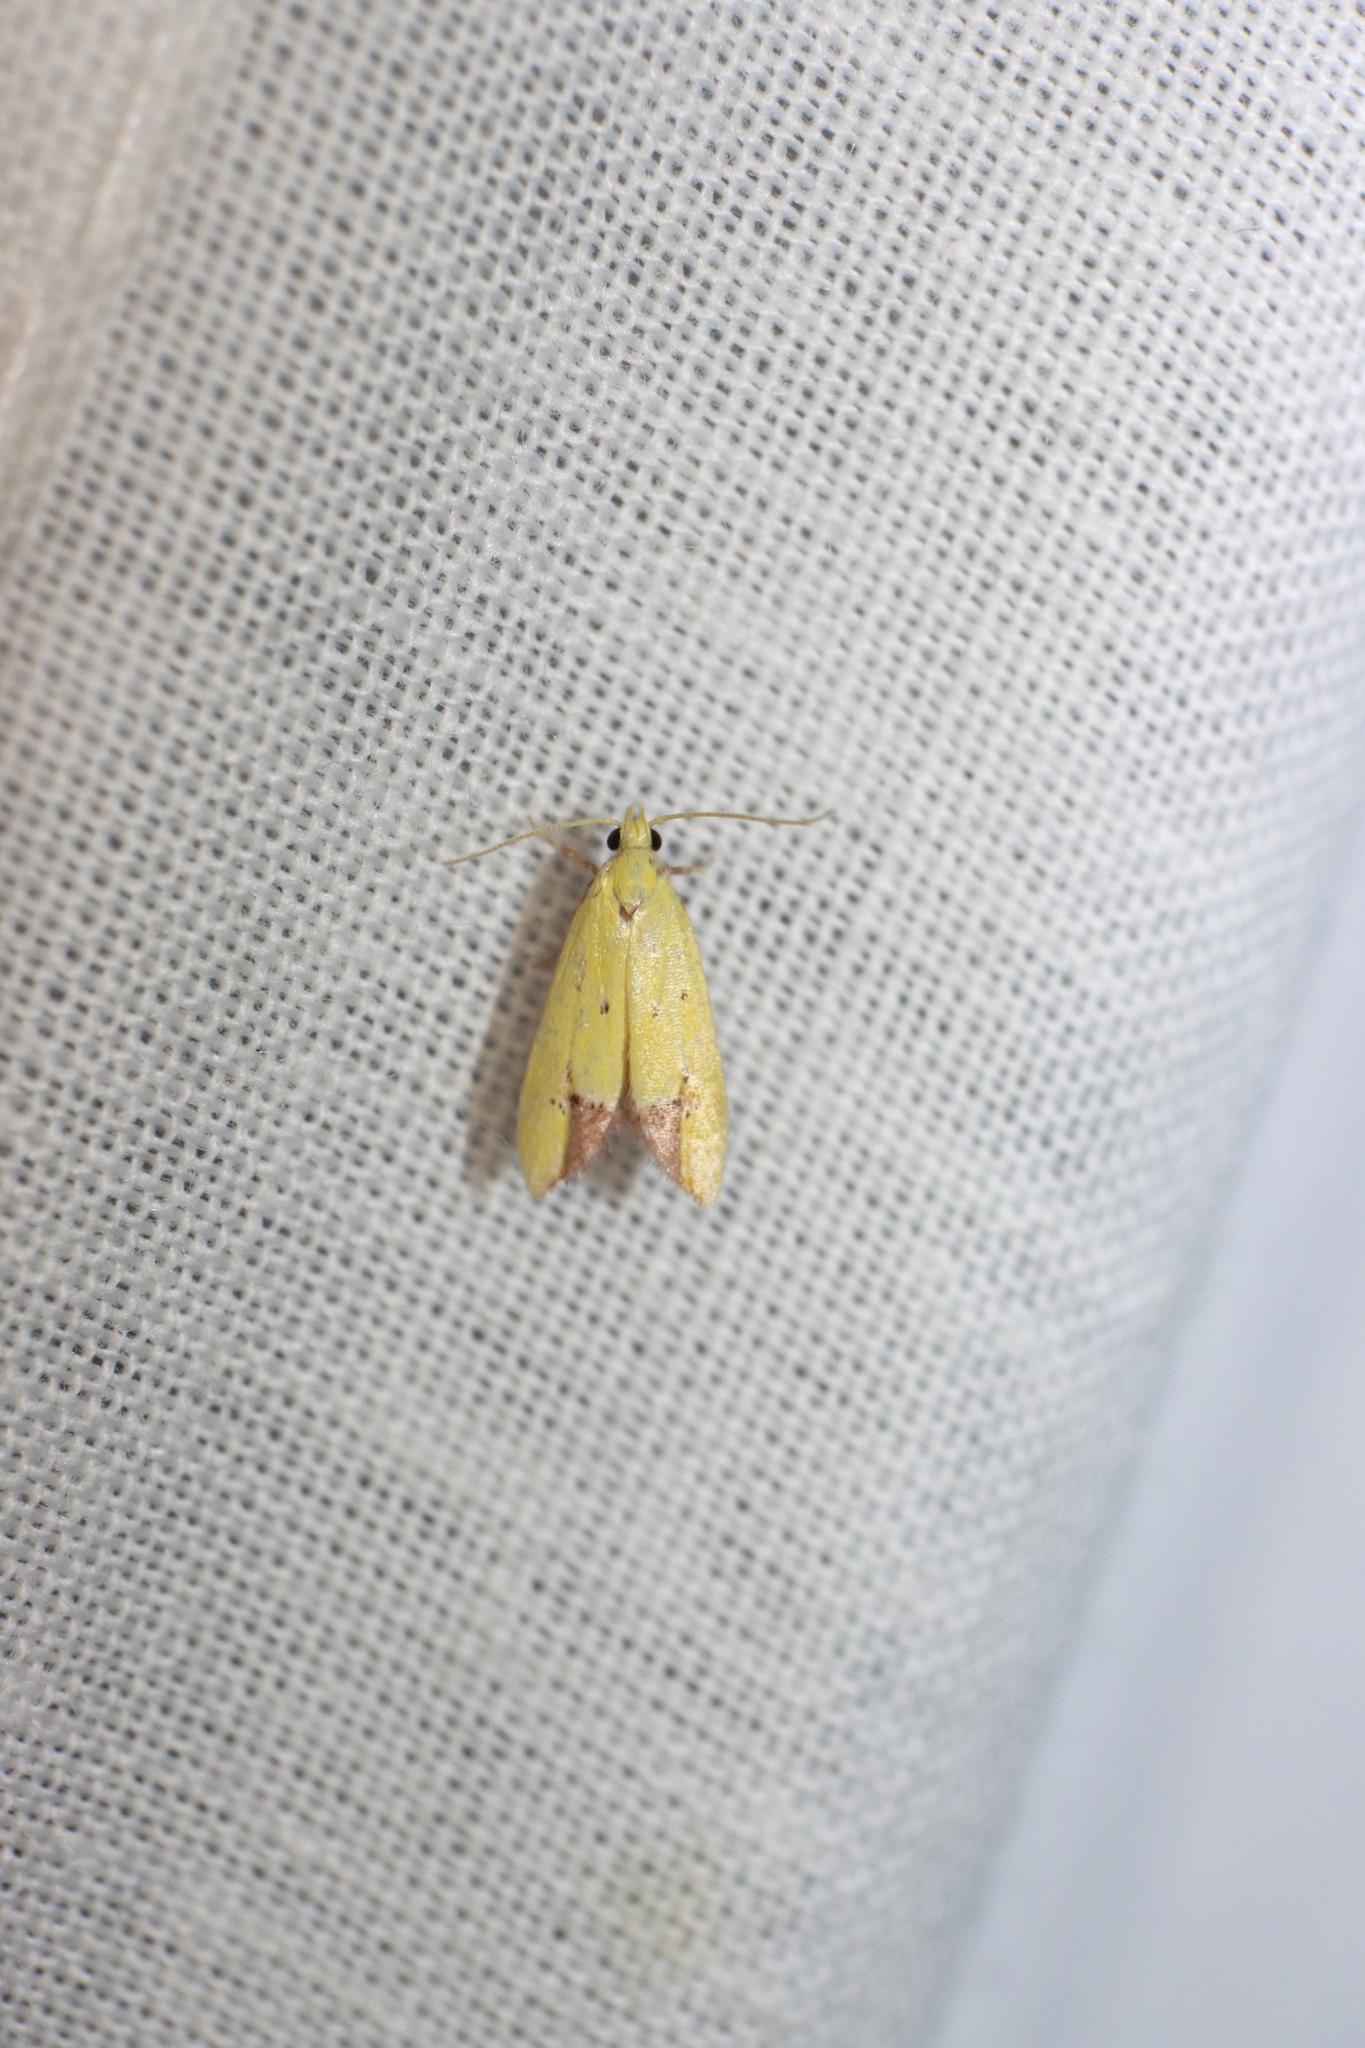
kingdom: Animalia
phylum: Arthropoda
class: Insecta
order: Lepidoptera
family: Oecophoridae
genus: Gymnobathra
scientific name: Gymnobathra flavidella
